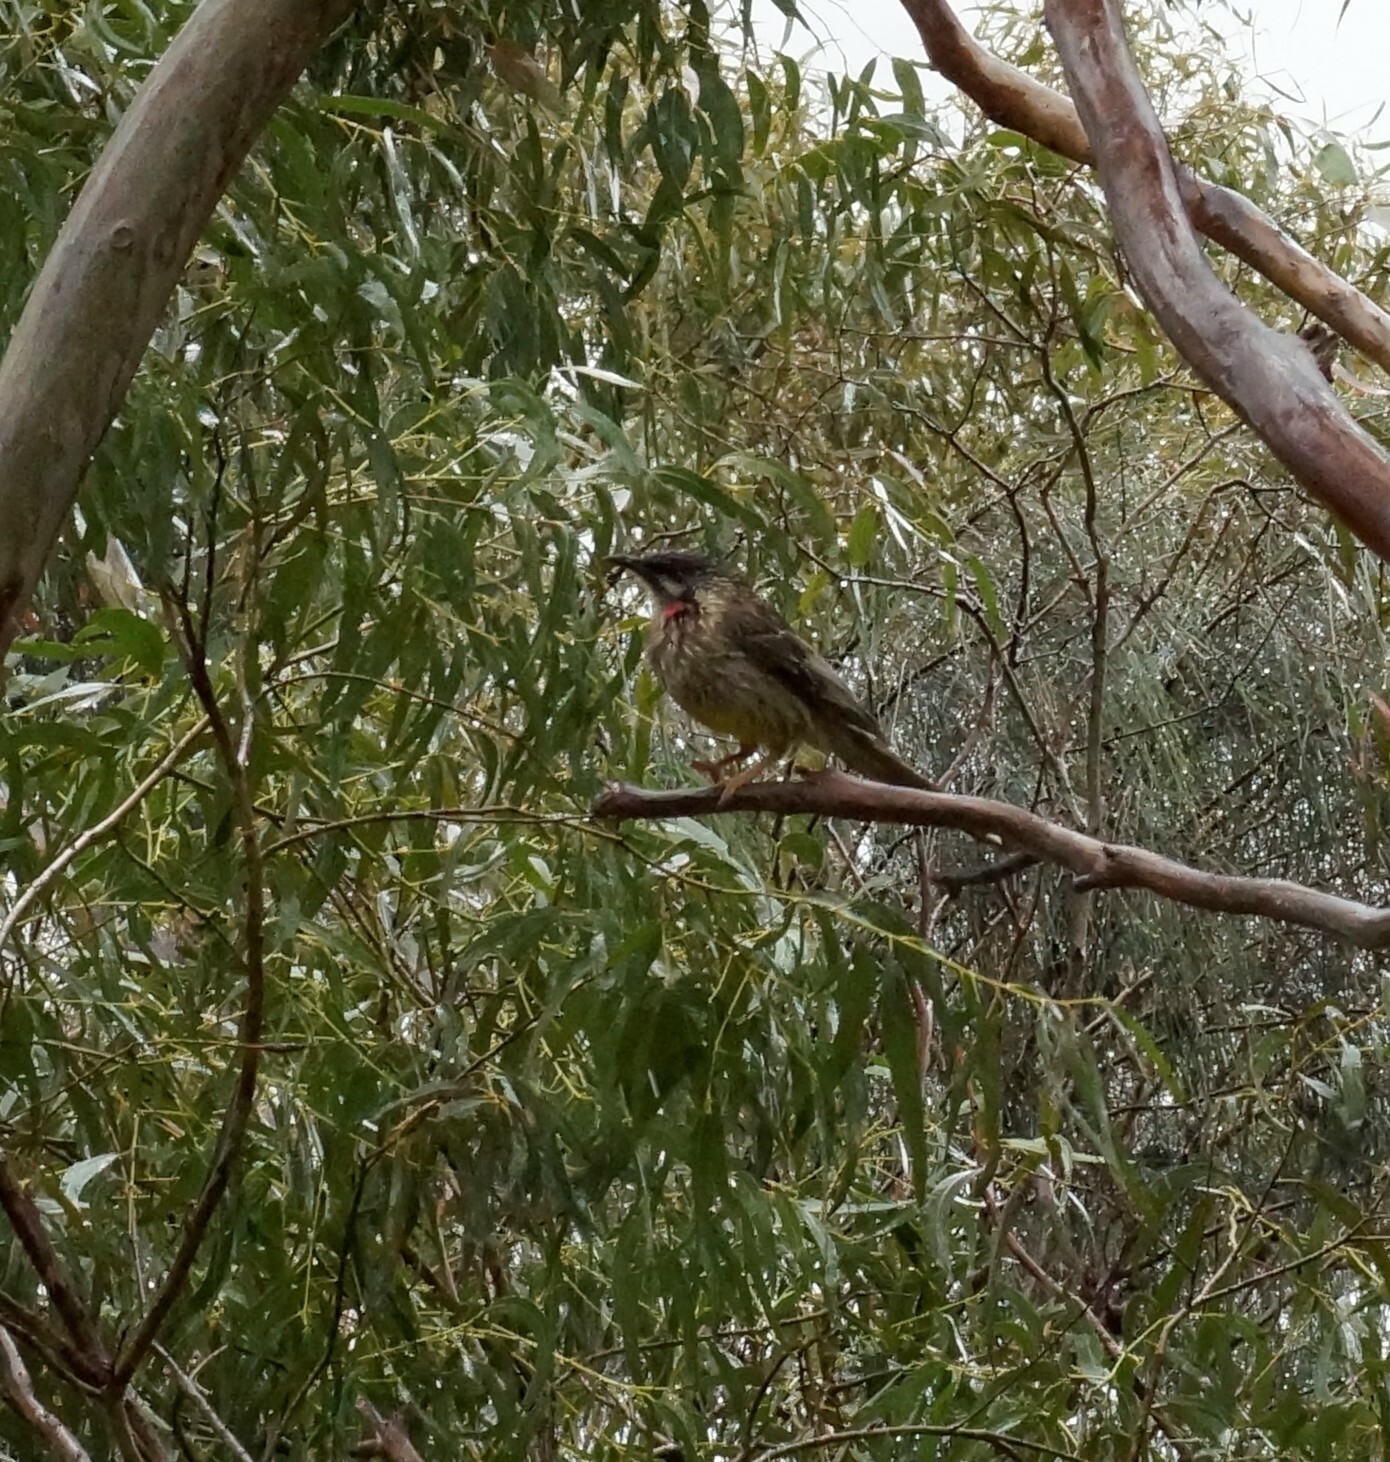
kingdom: Animalia
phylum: Chordata
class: Aves
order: Passeriformes
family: Meliphagidae
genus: Anthochaera
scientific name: Anthochaera carunculata
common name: Red wattlebird
